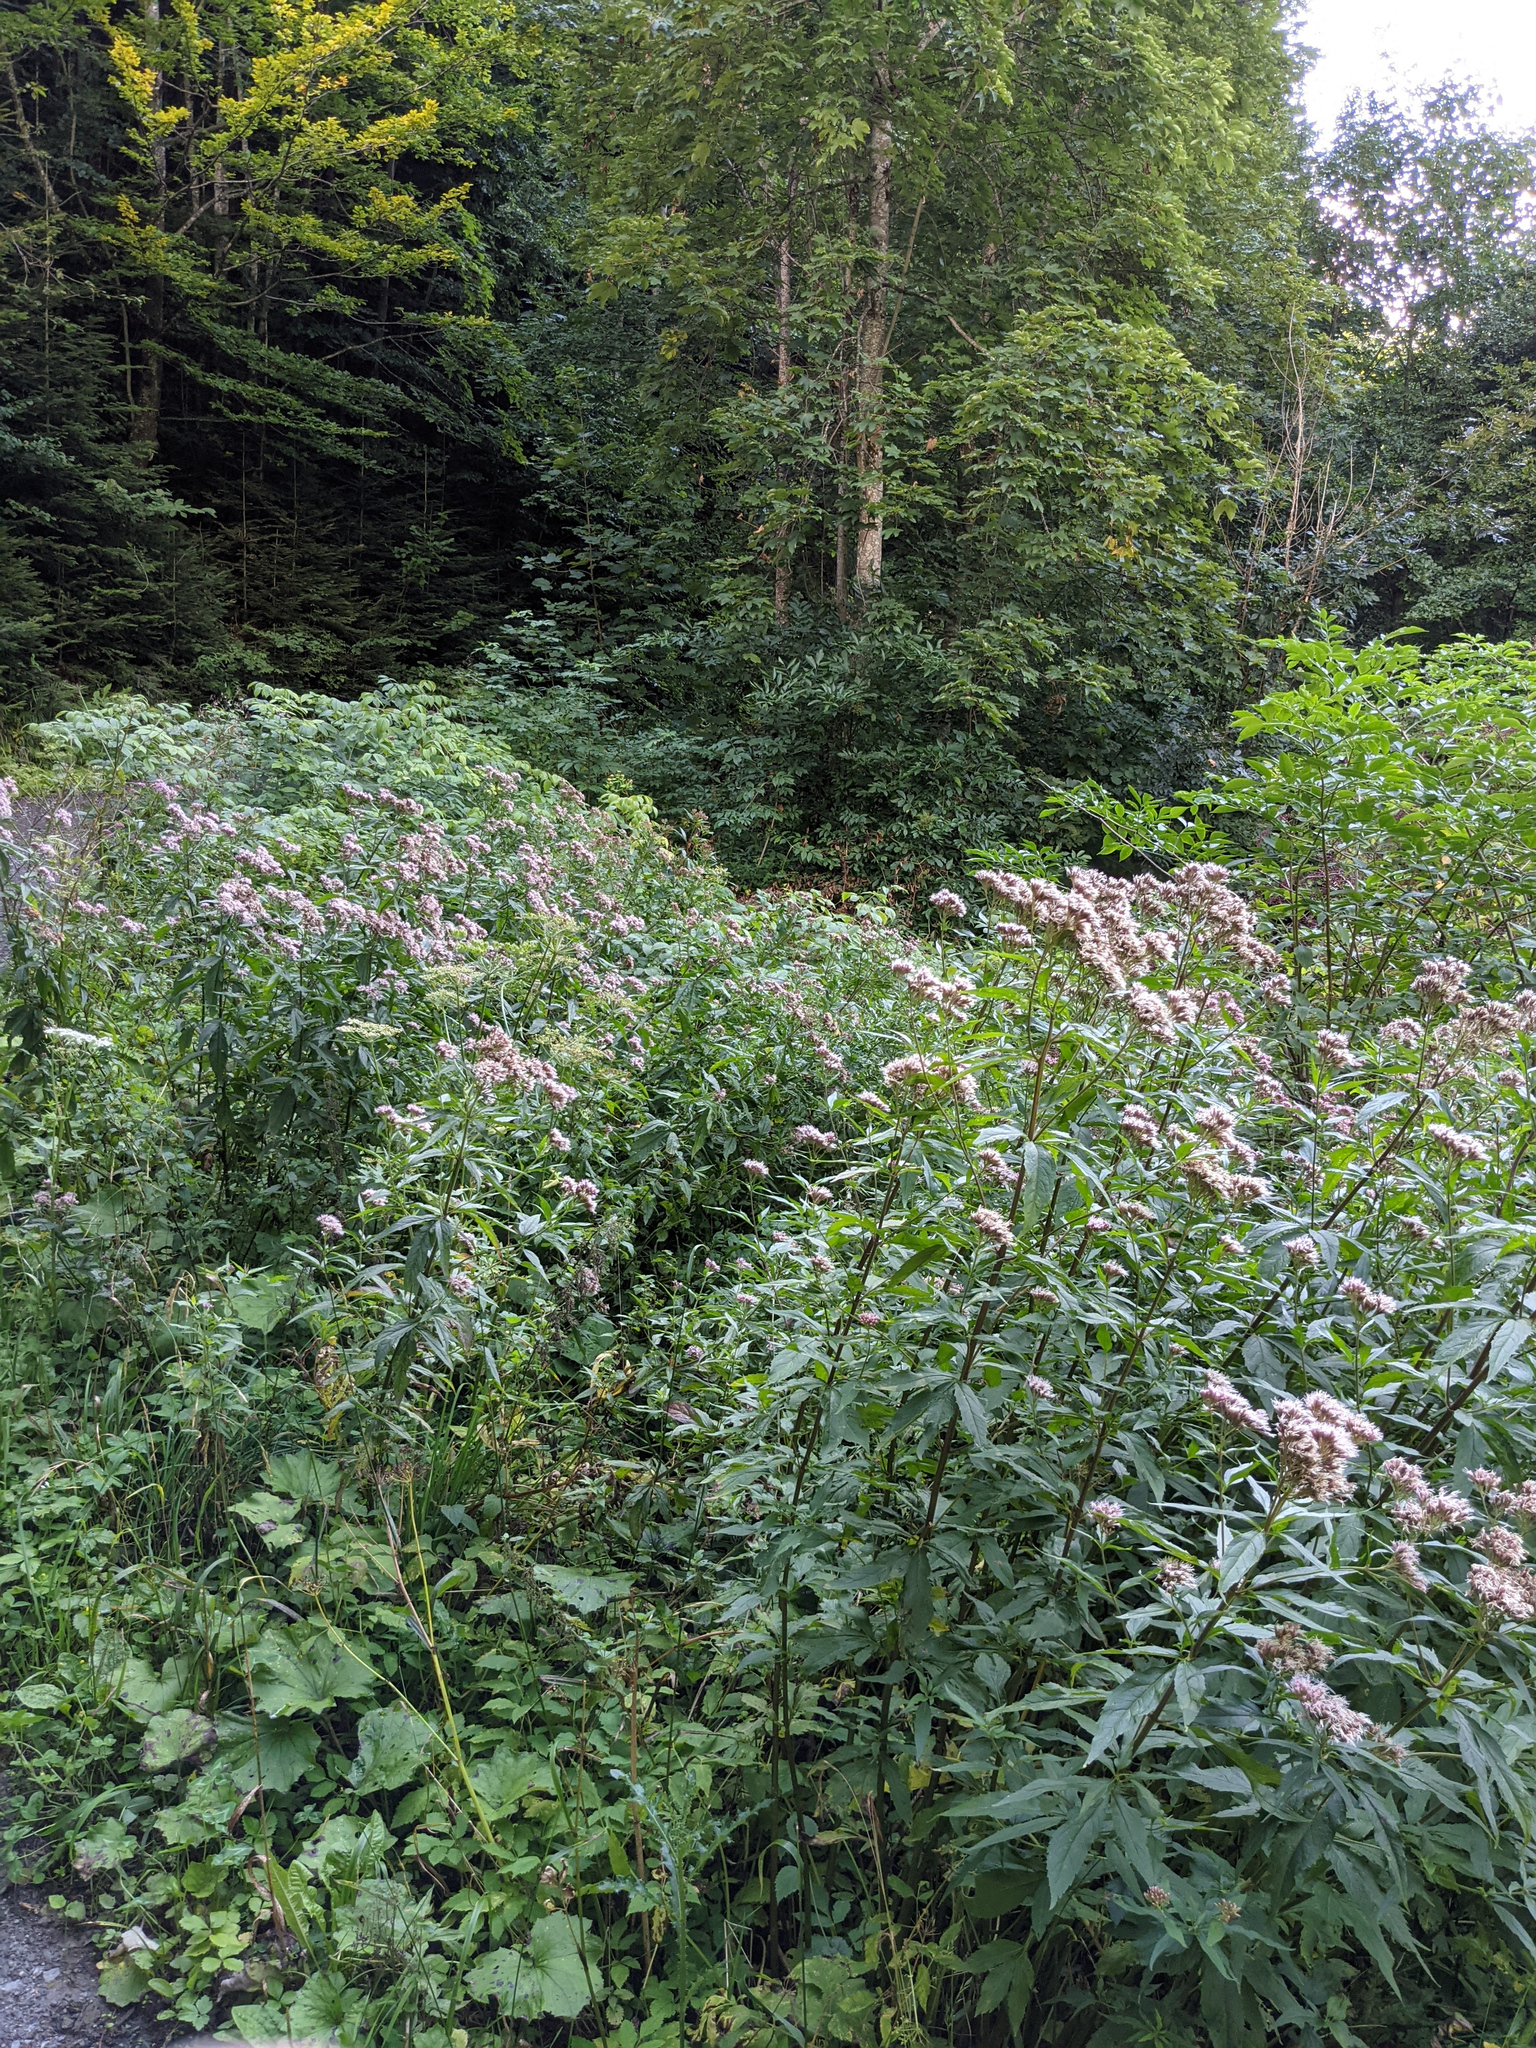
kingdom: Plantae
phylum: Tracheophyta
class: Magnoliopsida
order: Asterales
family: Asteraceae
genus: Eupatorium
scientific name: Eupatorium cannabinum
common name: Hemp-agrimony
